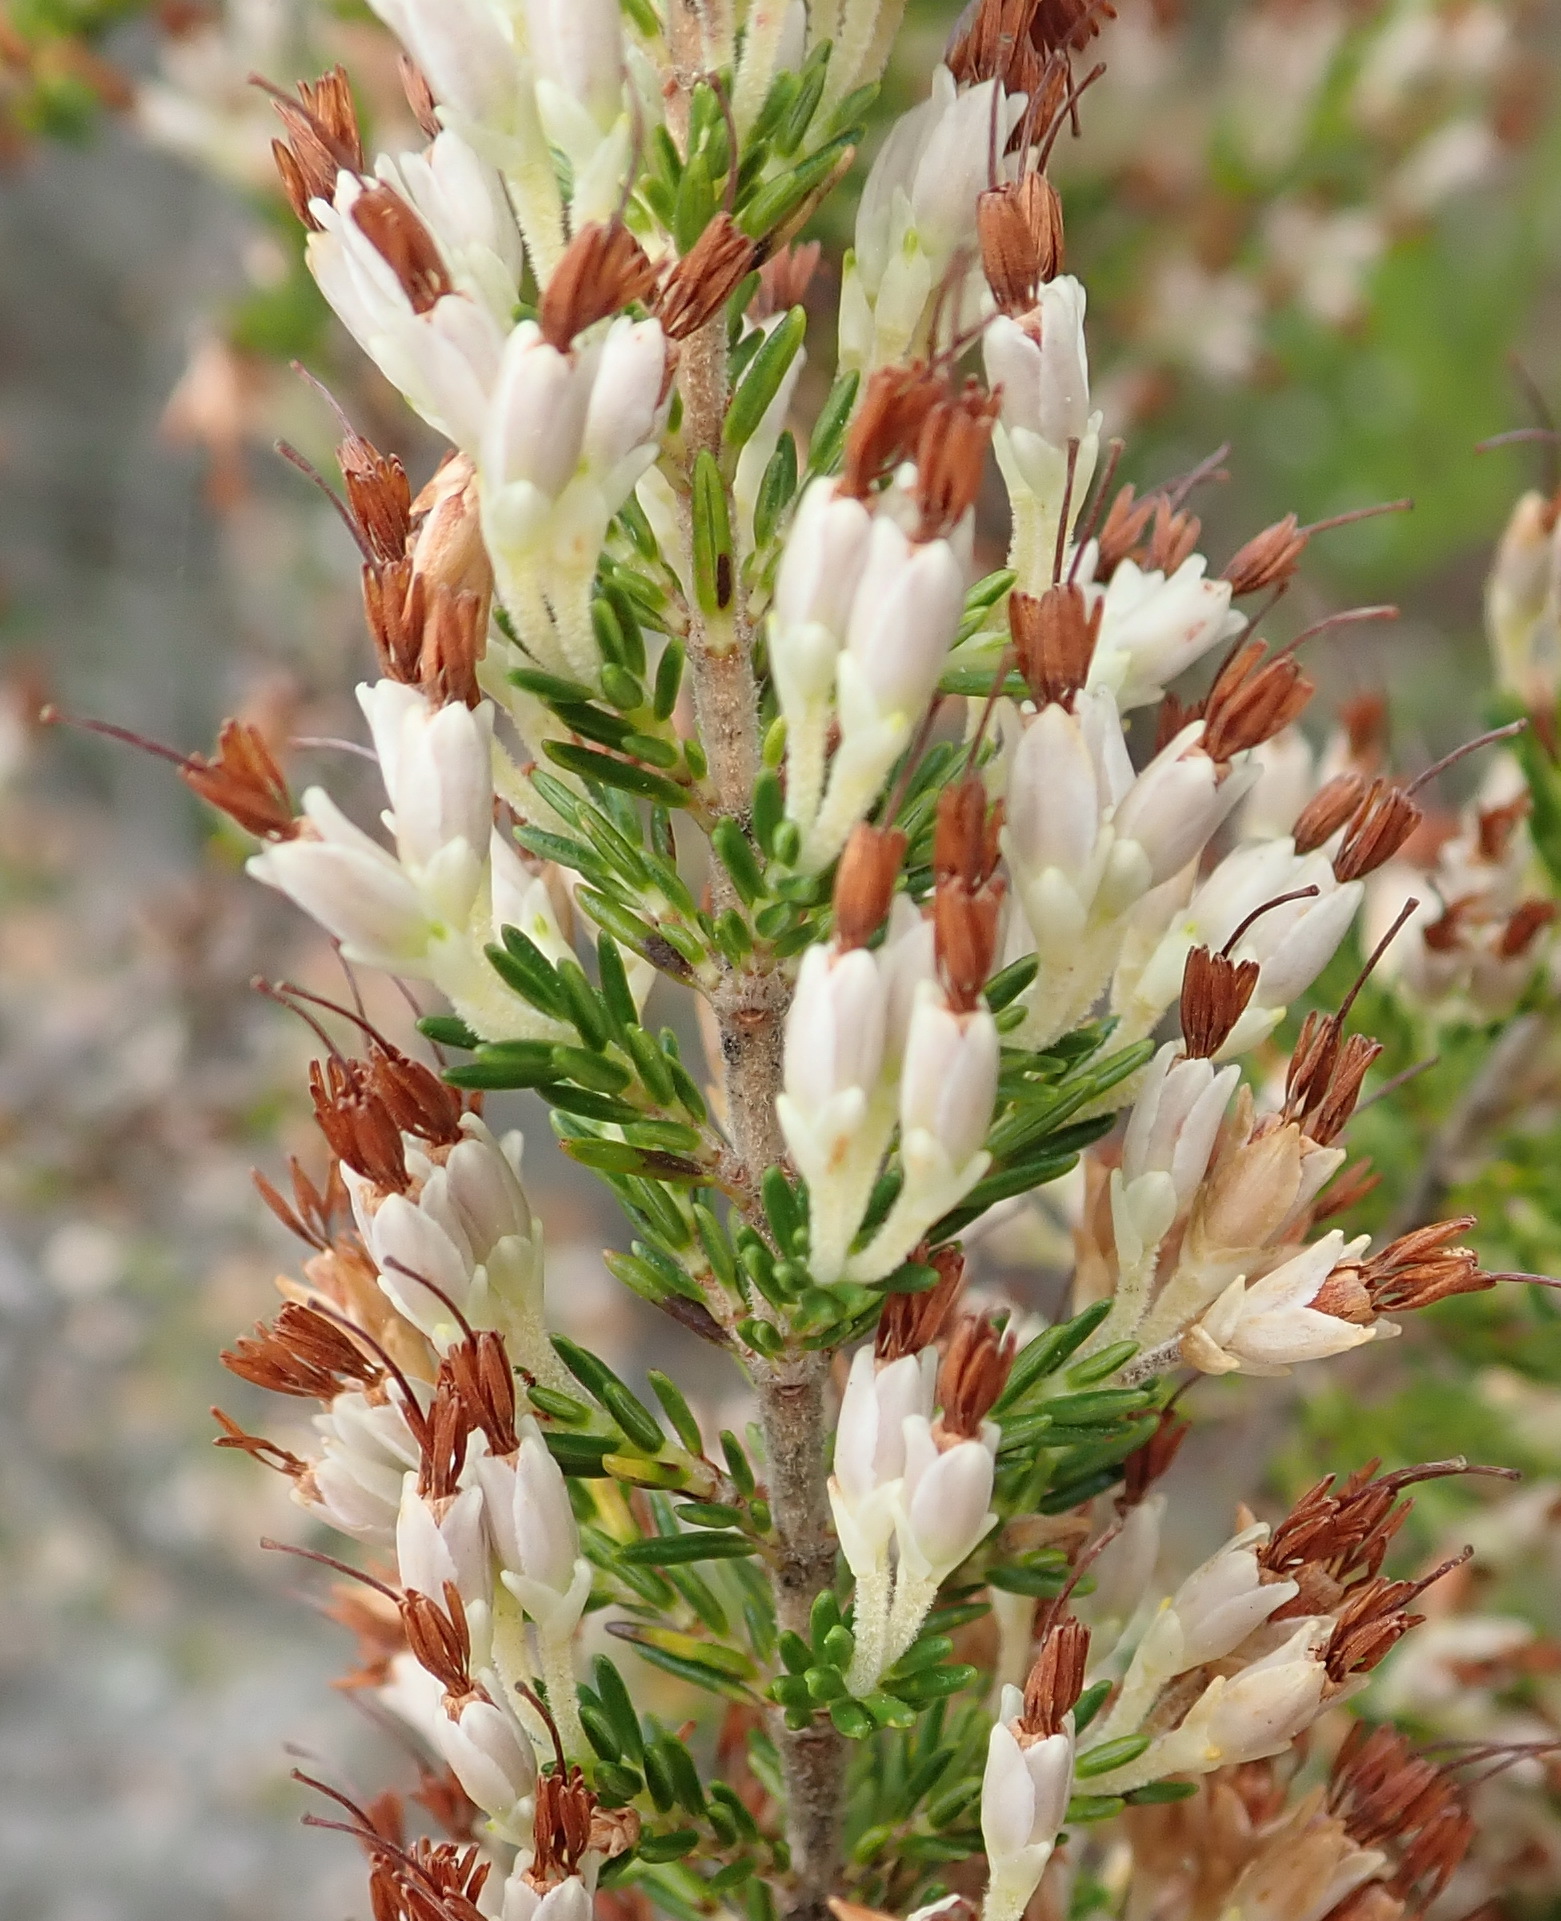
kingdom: Plantae
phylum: Tracheophyta
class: Magnoliopsida
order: Ericales
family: Ericaceae
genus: Erica
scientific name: Erica imbricata
